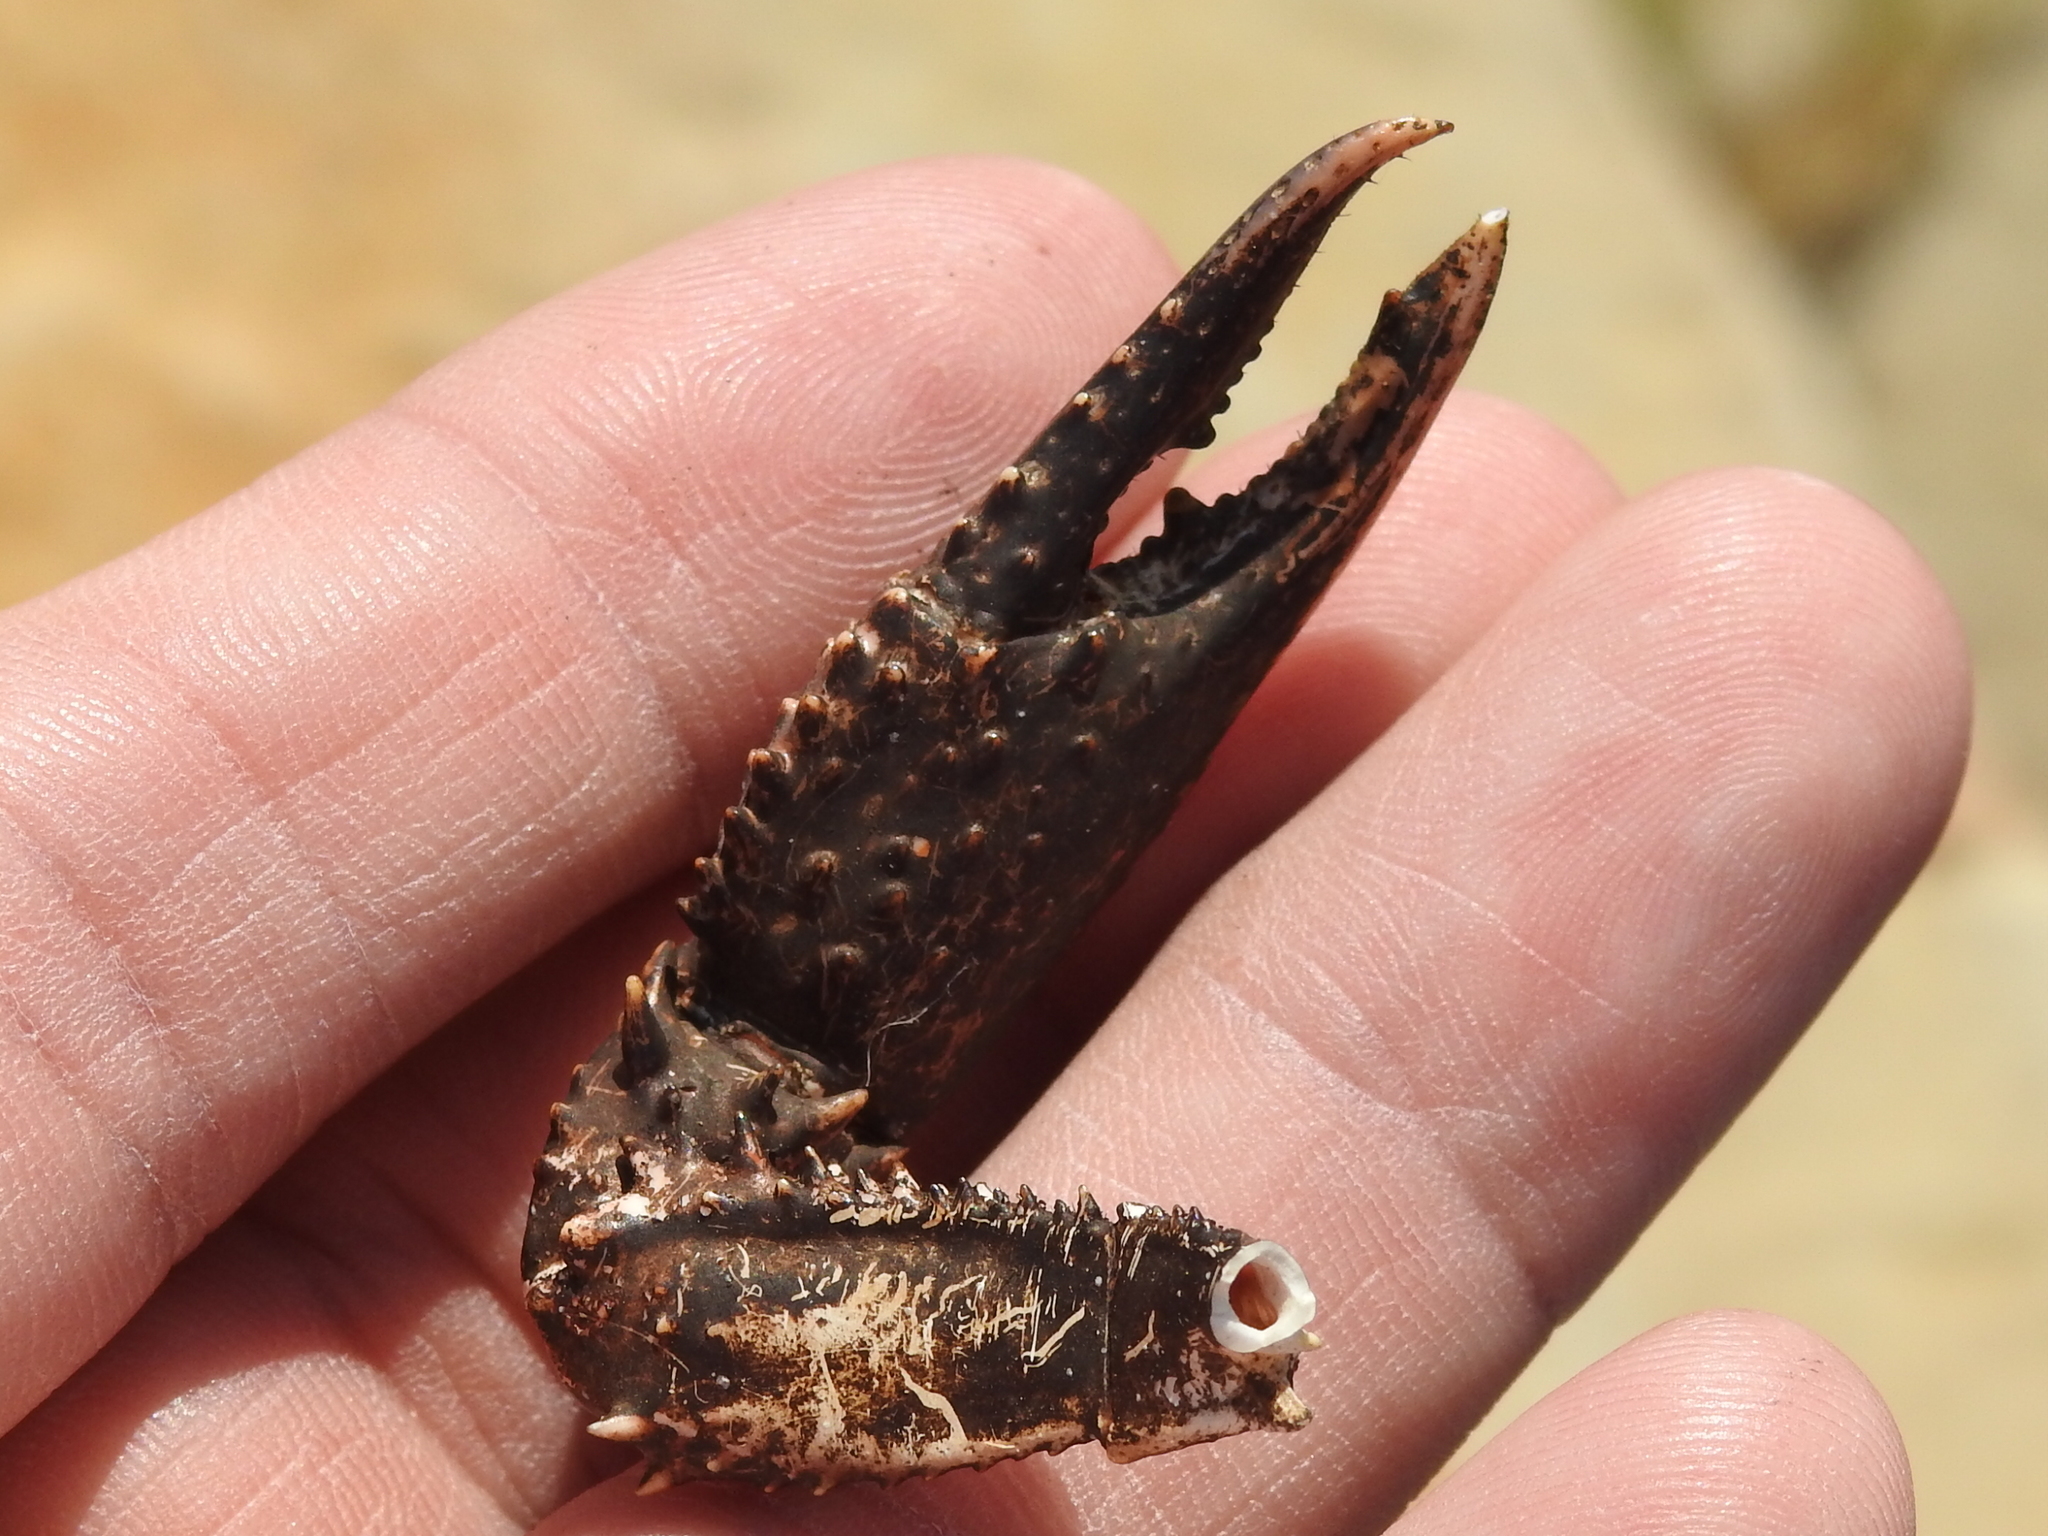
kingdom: Animalia
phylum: Arthropoda
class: Malacostraca
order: Decapoda
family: Cambaridae
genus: Procambarus
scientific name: Procambarus clarkii
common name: Red swamp crayfish
